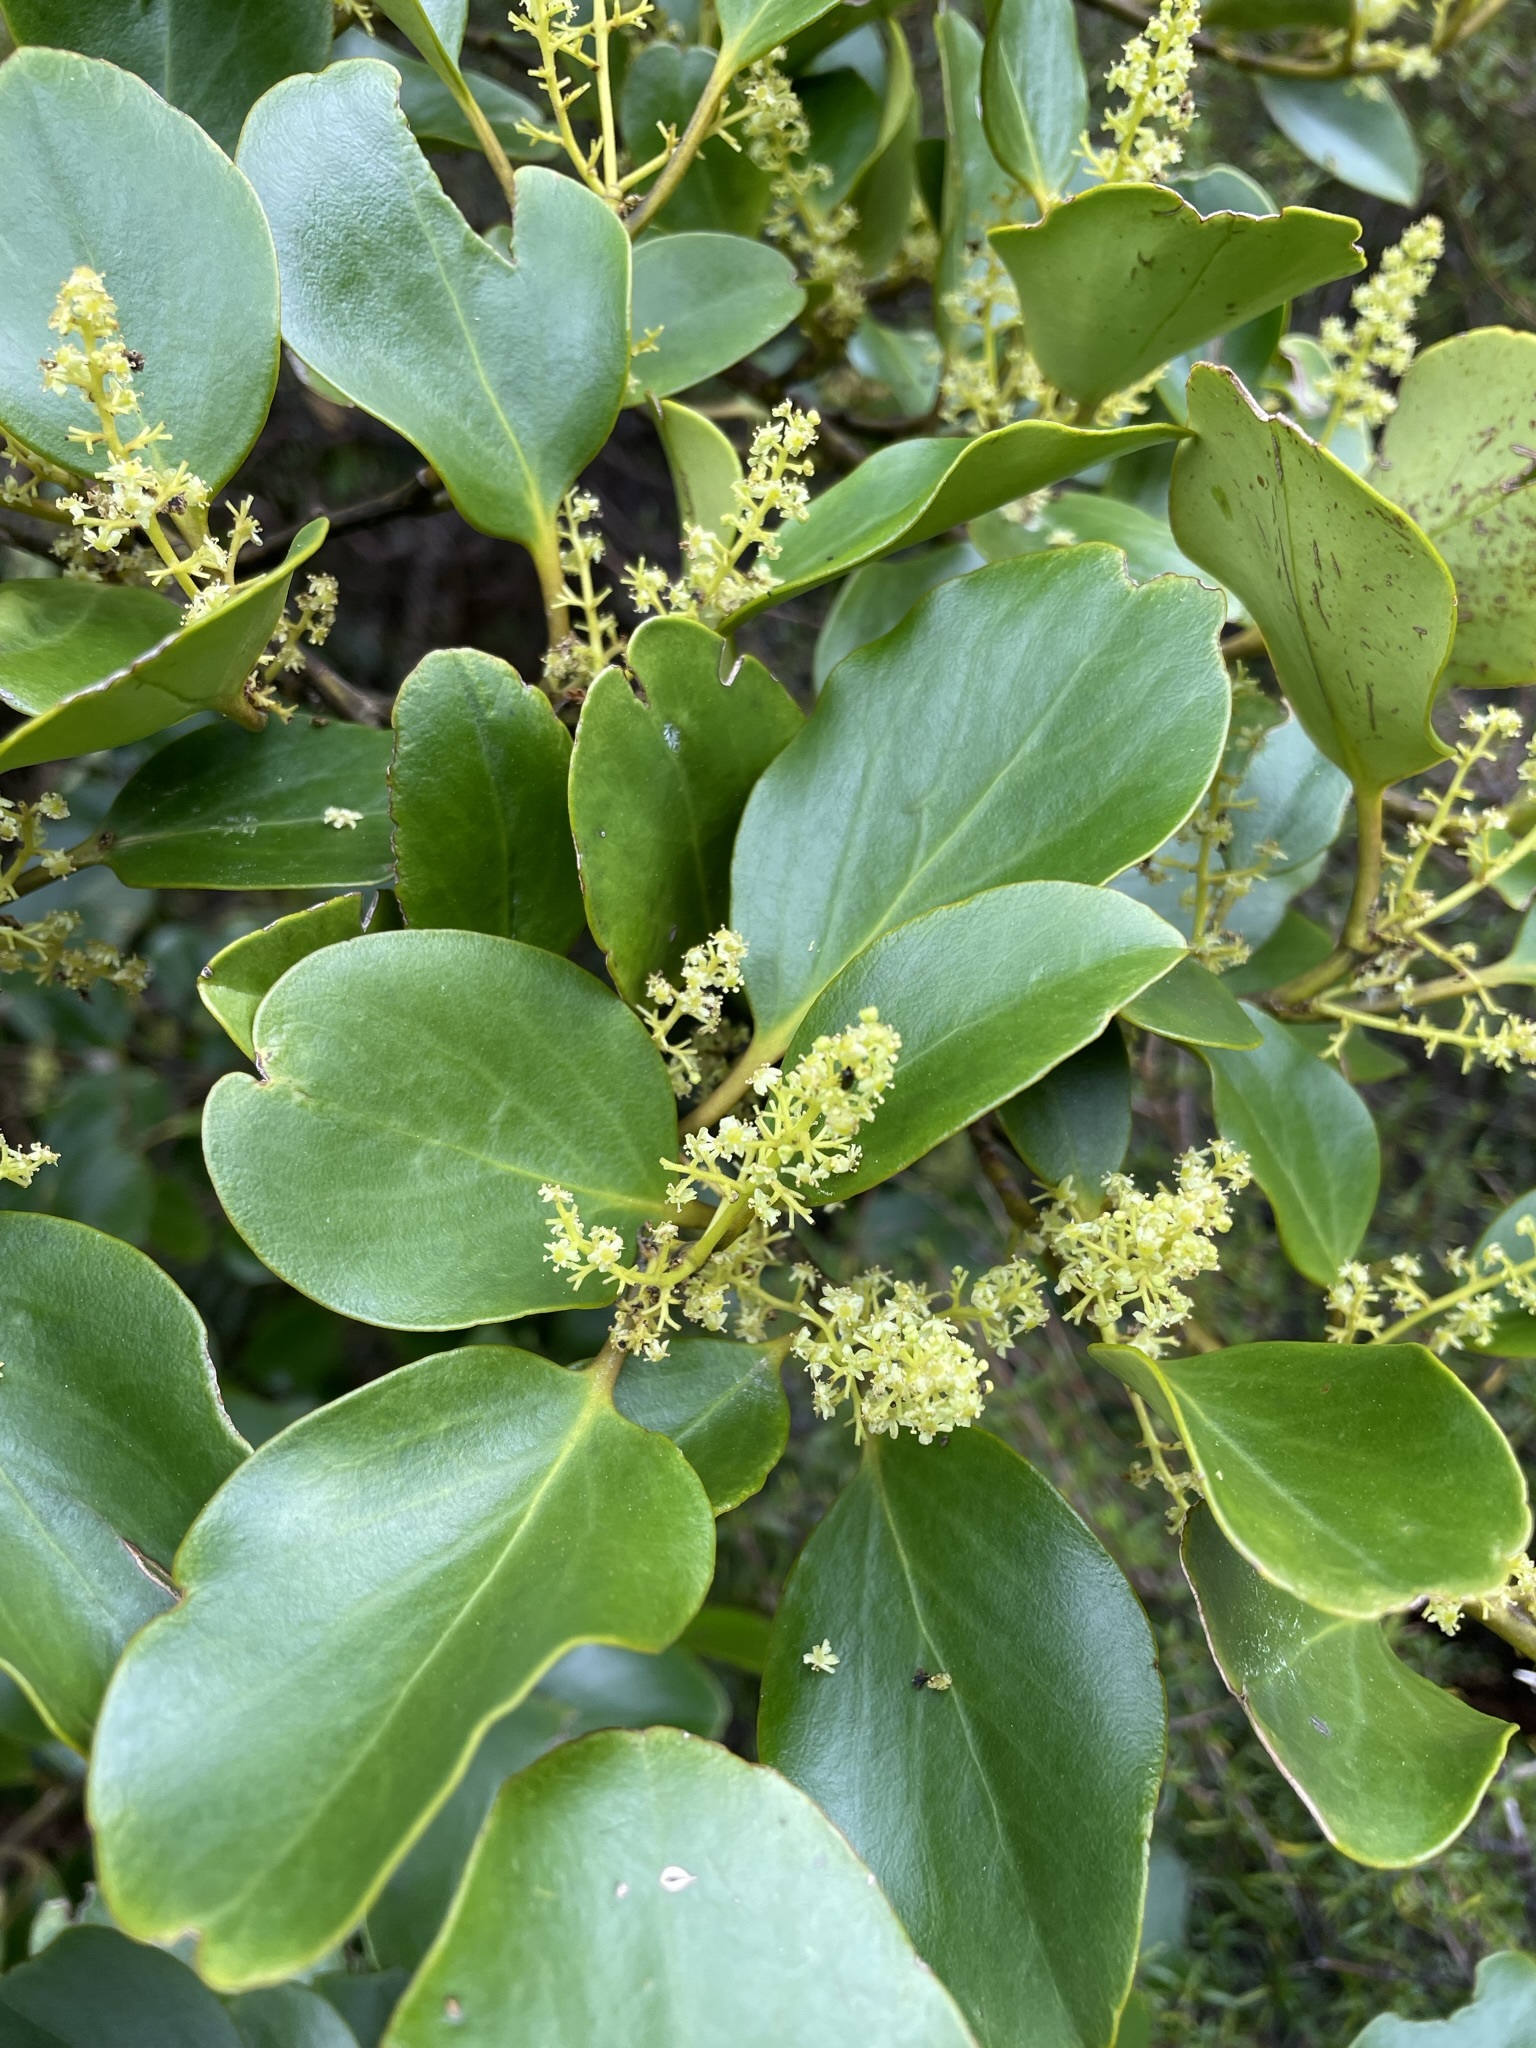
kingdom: Plantae
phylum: Tracheophyta
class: Magnoliopsida
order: Apiales
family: Griseliniaceae
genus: Griselinia
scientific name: Griselinia littoralis
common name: New zealand broadleaf
